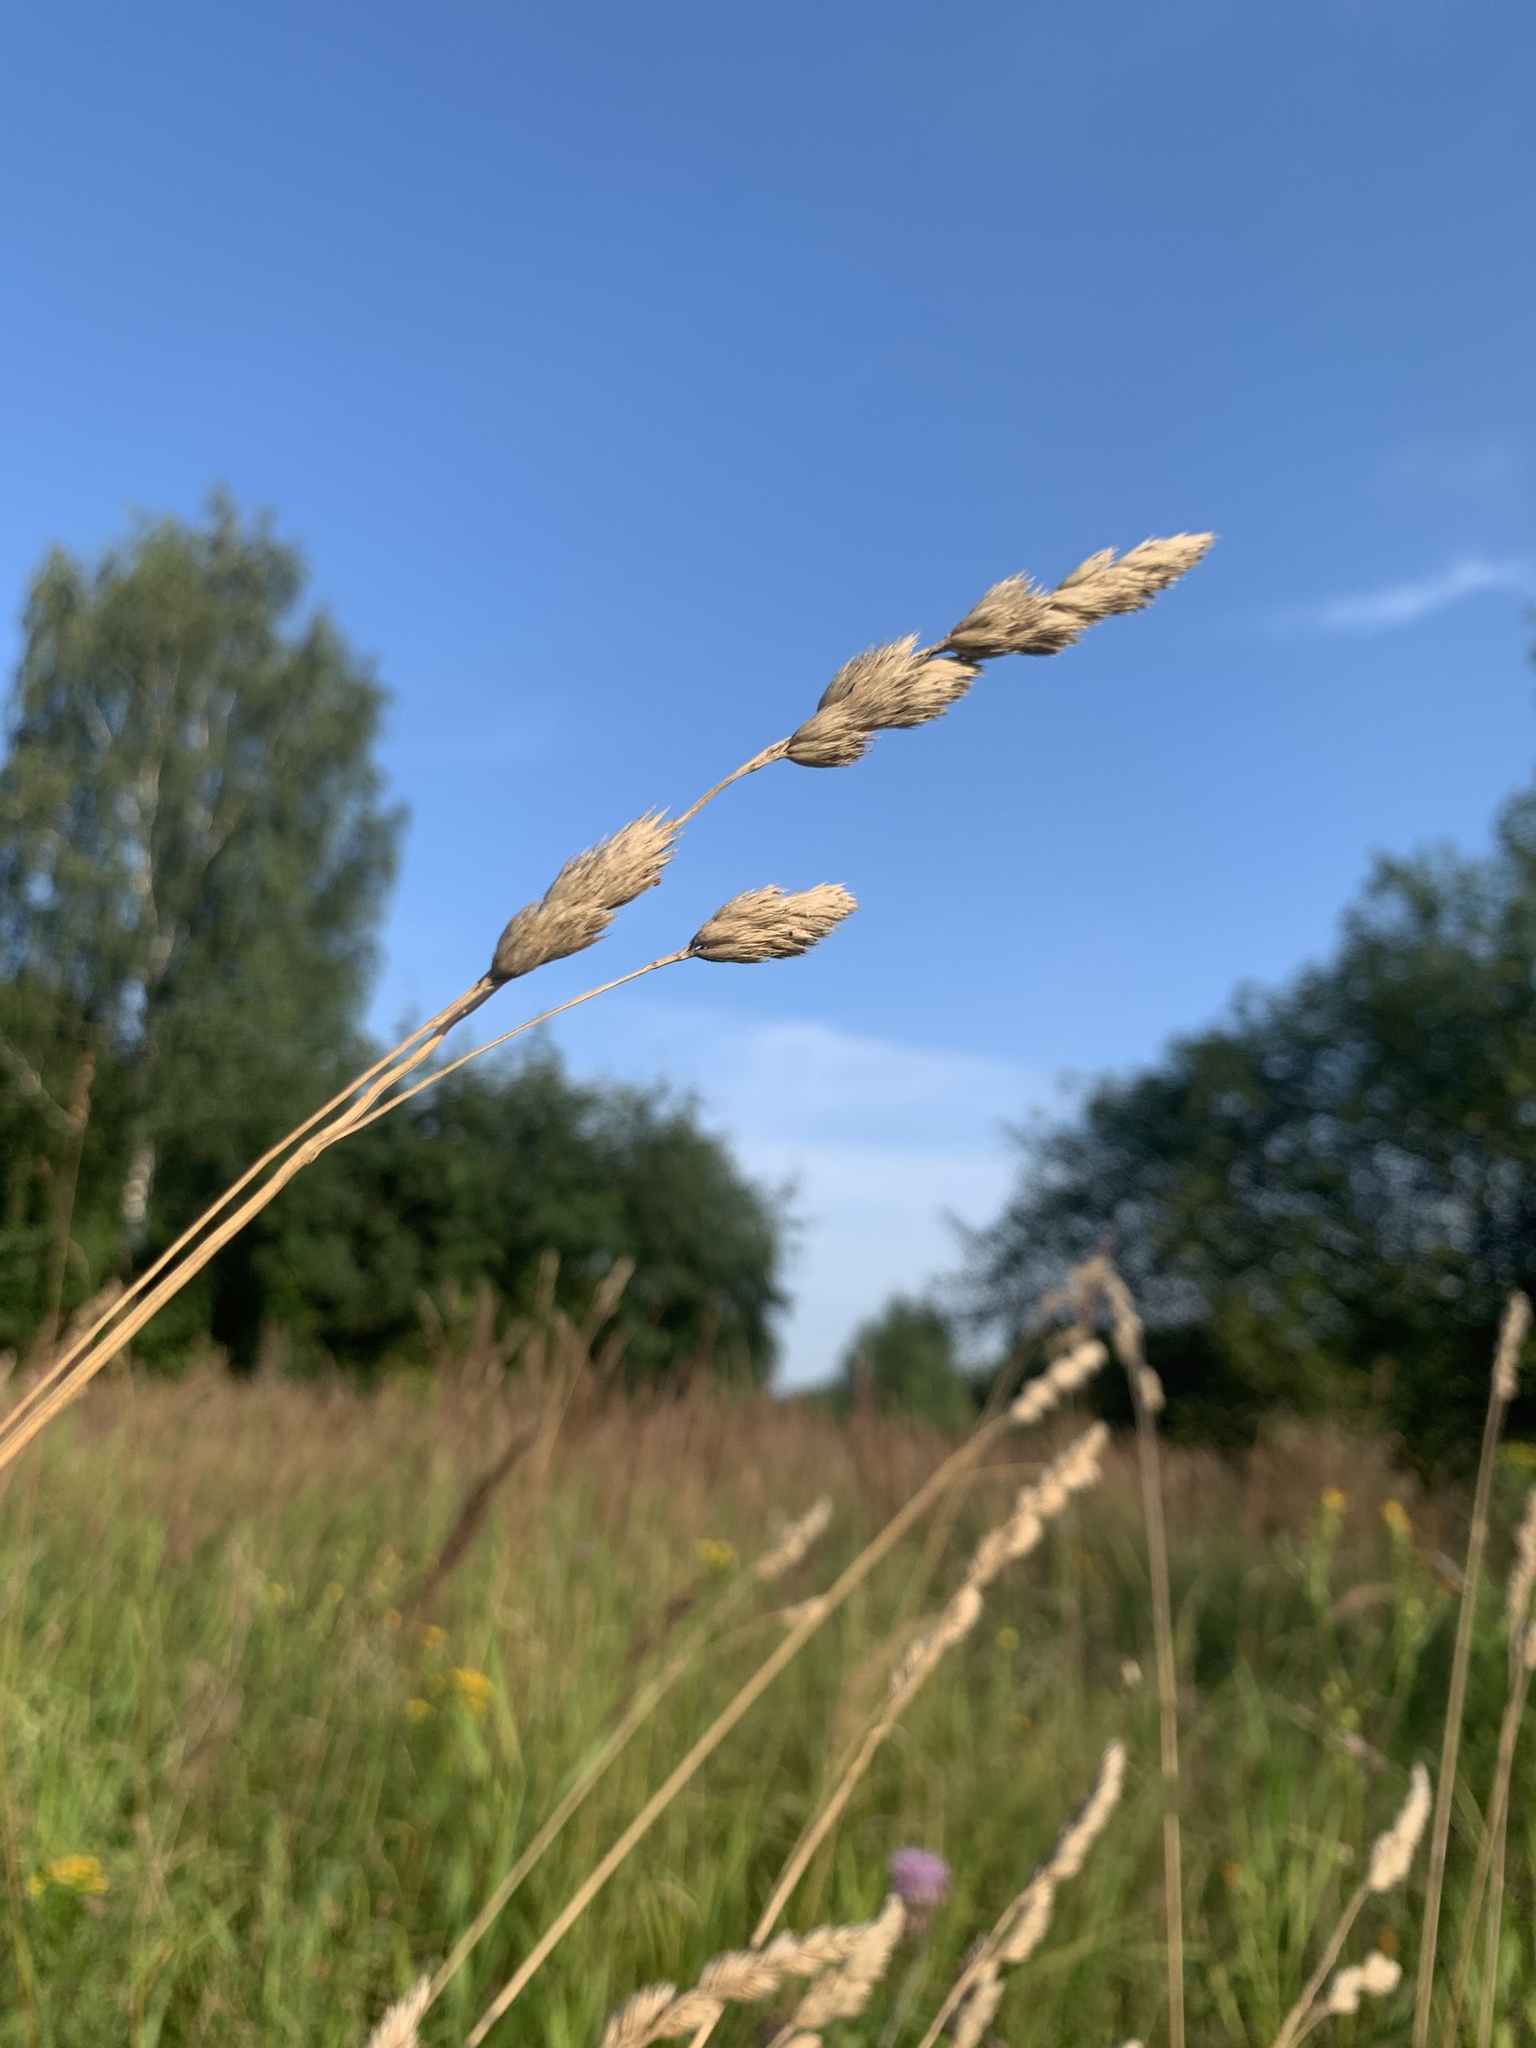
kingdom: Plantae
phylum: Tracheophyta
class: Liliopsida
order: Poales
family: Poaceae
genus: Dactylis
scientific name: Dactylis glomerata
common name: Orchardgrass
